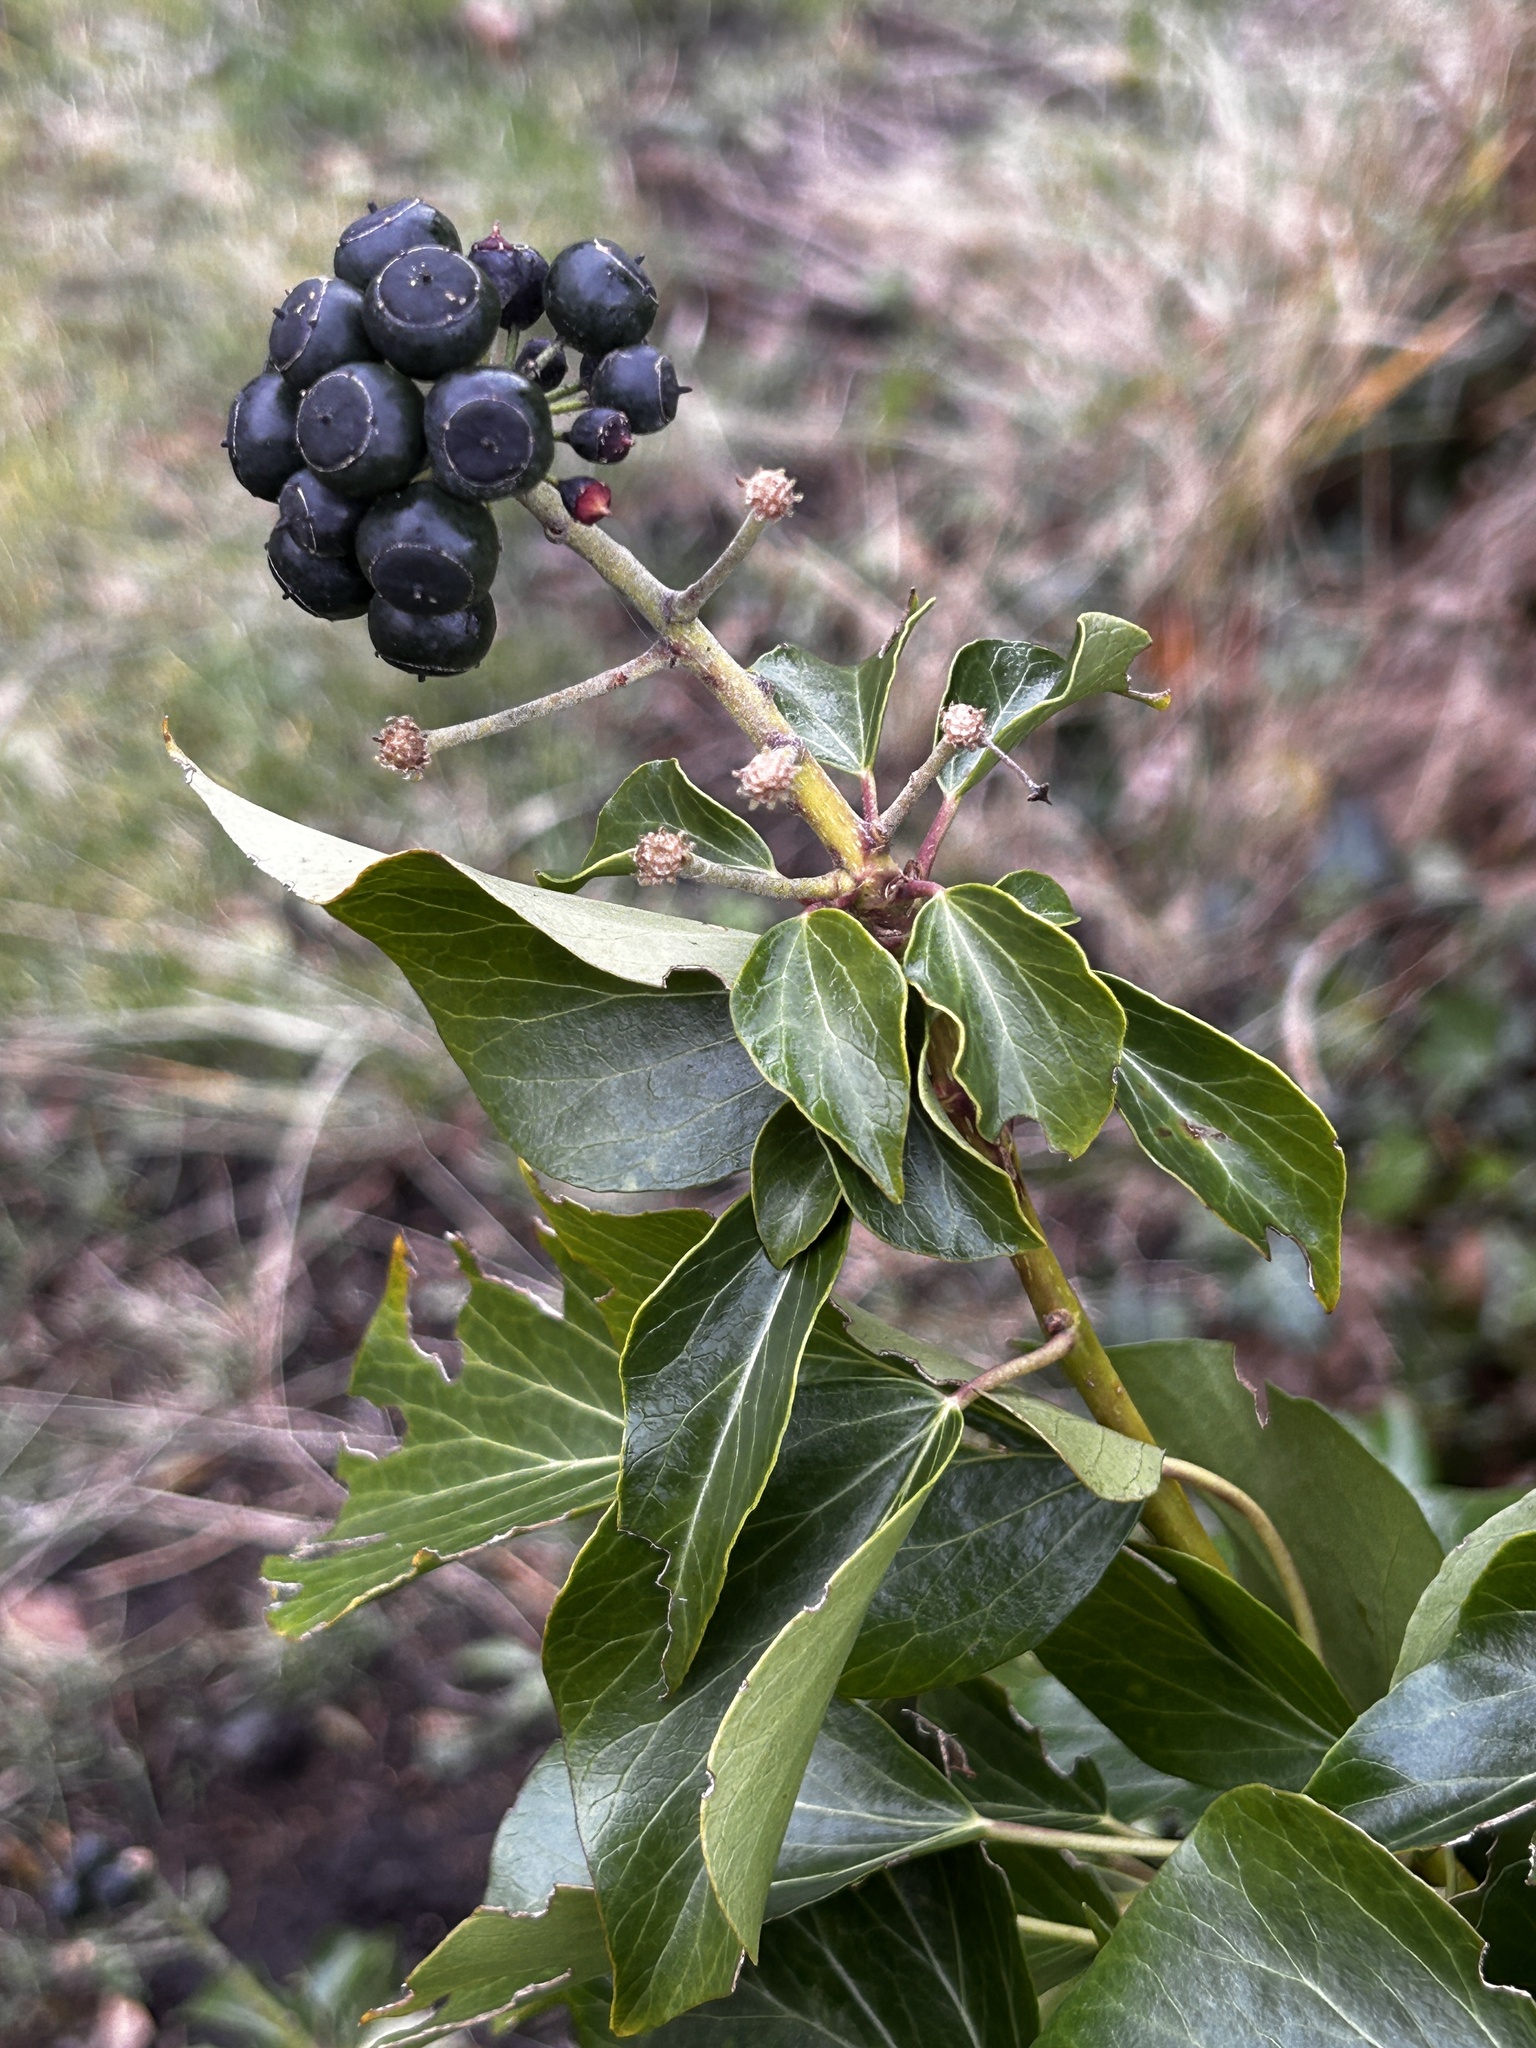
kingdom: Plantae
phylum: Tracheophyta
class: Magnoliopsida
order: Apiales
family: Araliaceae
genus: Hedera
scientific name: Hedera helix
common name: Ivy
